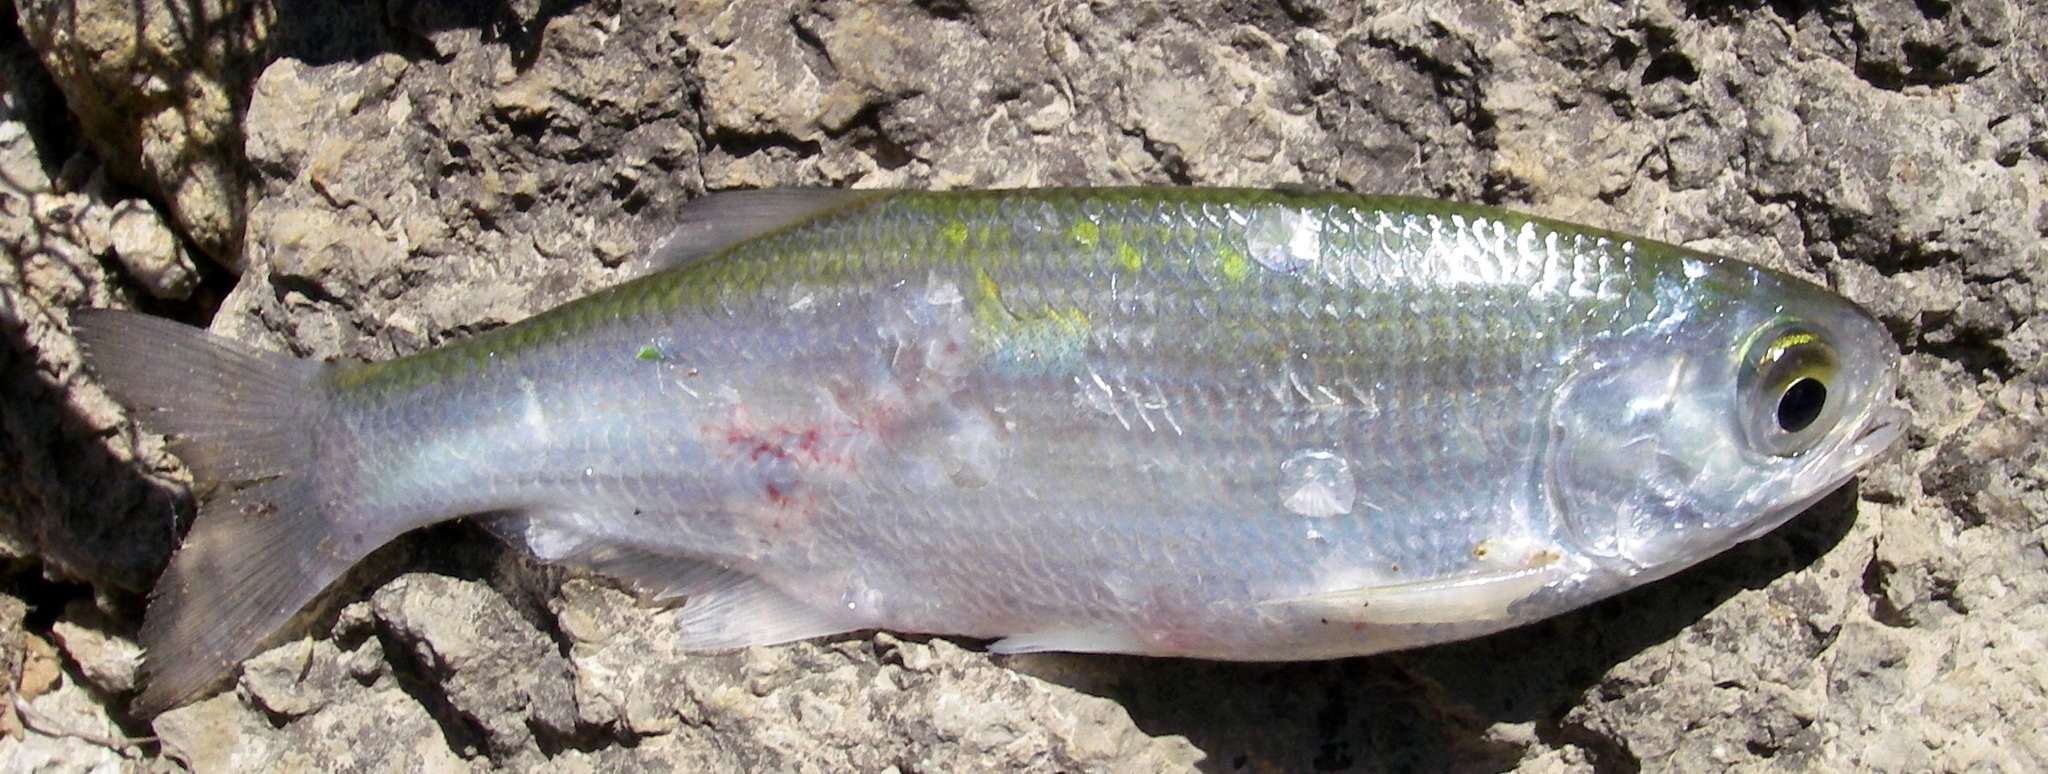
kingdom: Animalia
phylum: Chordata
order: Osteoglossiformes
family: Hiodontidae
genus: Hiodon
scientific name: Hiodon tergisus
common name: Mooneye
